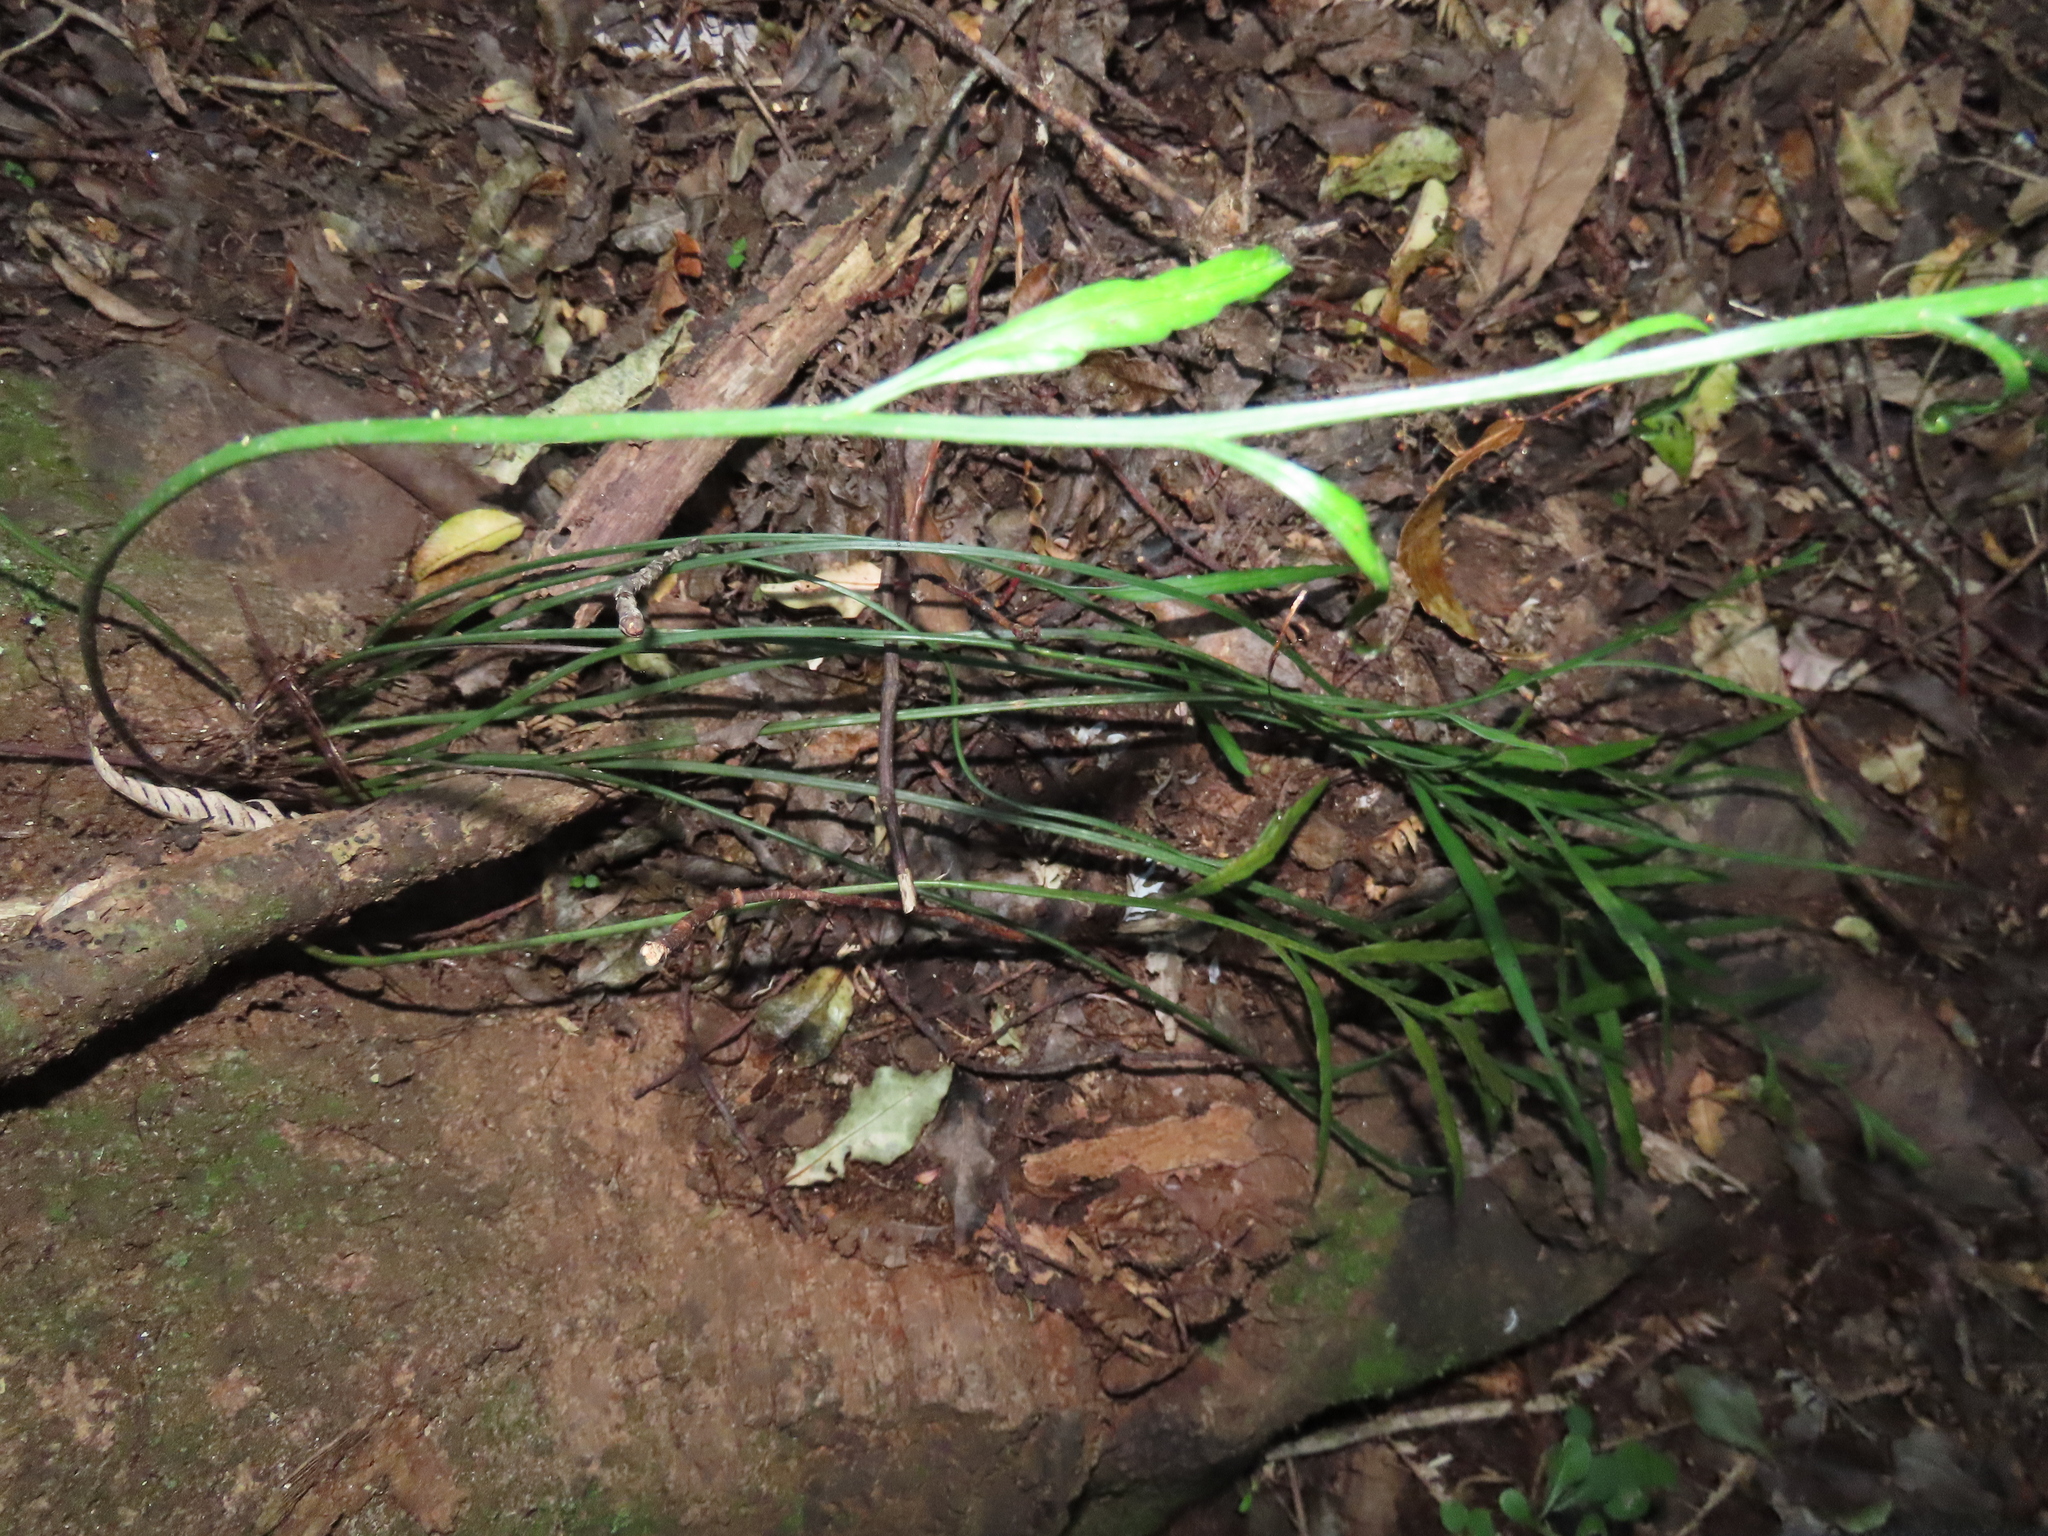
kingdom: Plantae
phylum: Tracheophyta
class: Polypodiopsida
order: Polypodiales
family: Aspleniaceae
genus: Asplenium
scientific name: Asplenium flaccidum
